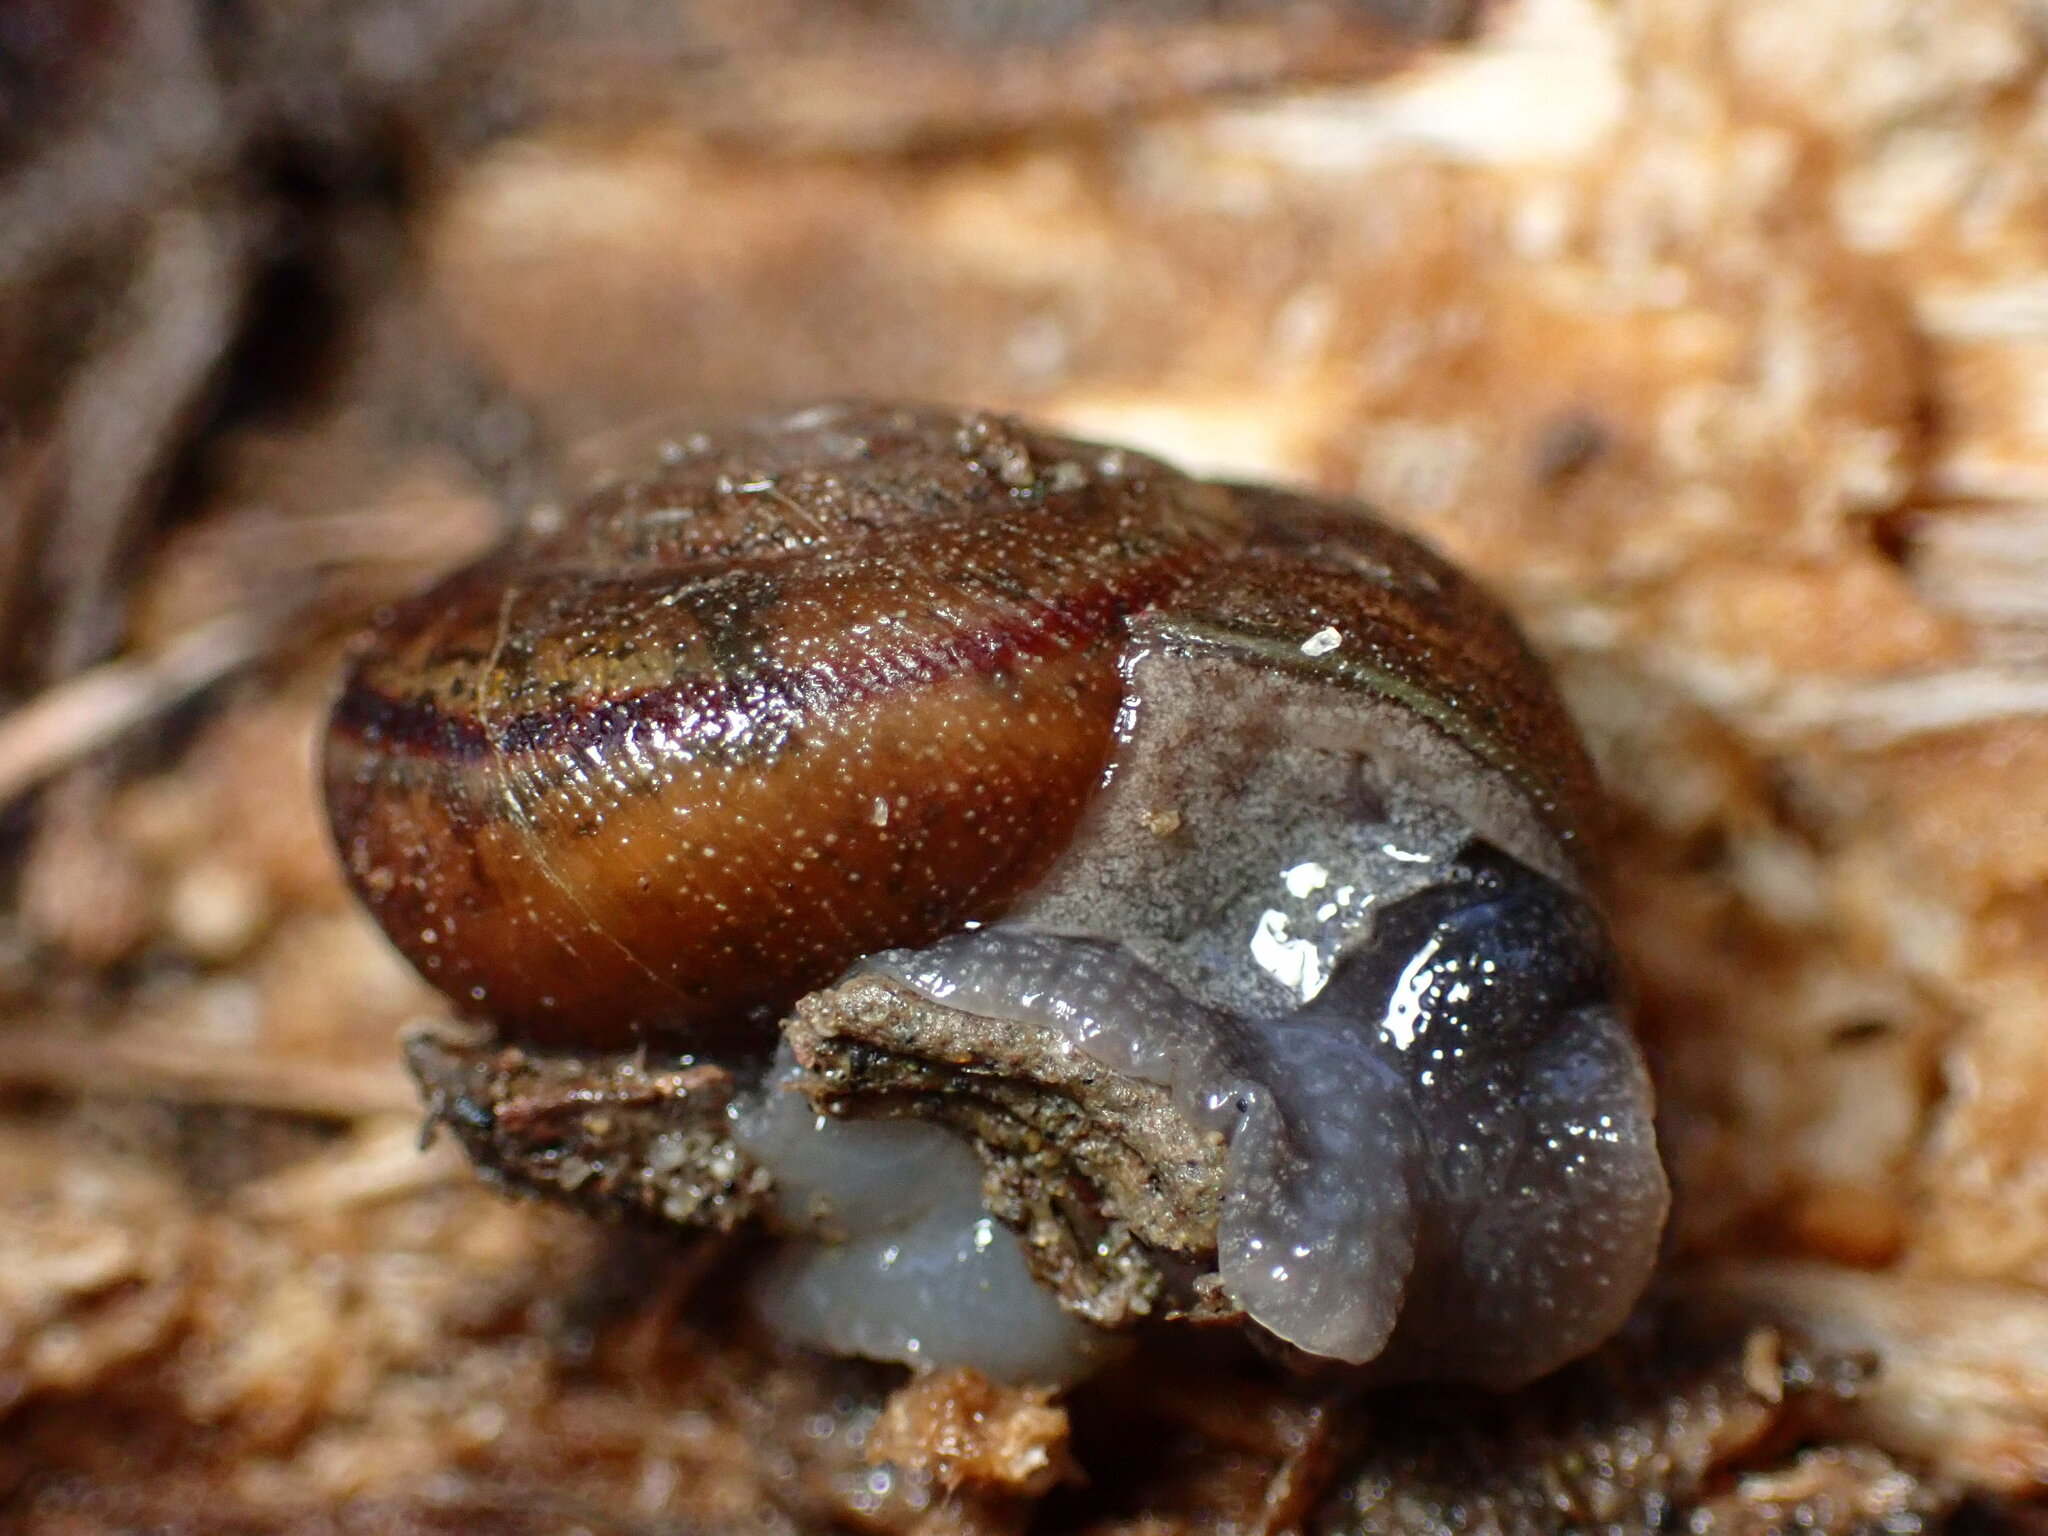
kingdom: Animalia
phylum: Mollusca
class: Gastropoda
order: Stylommatophora
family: Xanthonychidae
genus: Helminthoglypta
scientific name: Helminthoglypta walkeriana
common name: Banded dune snail
